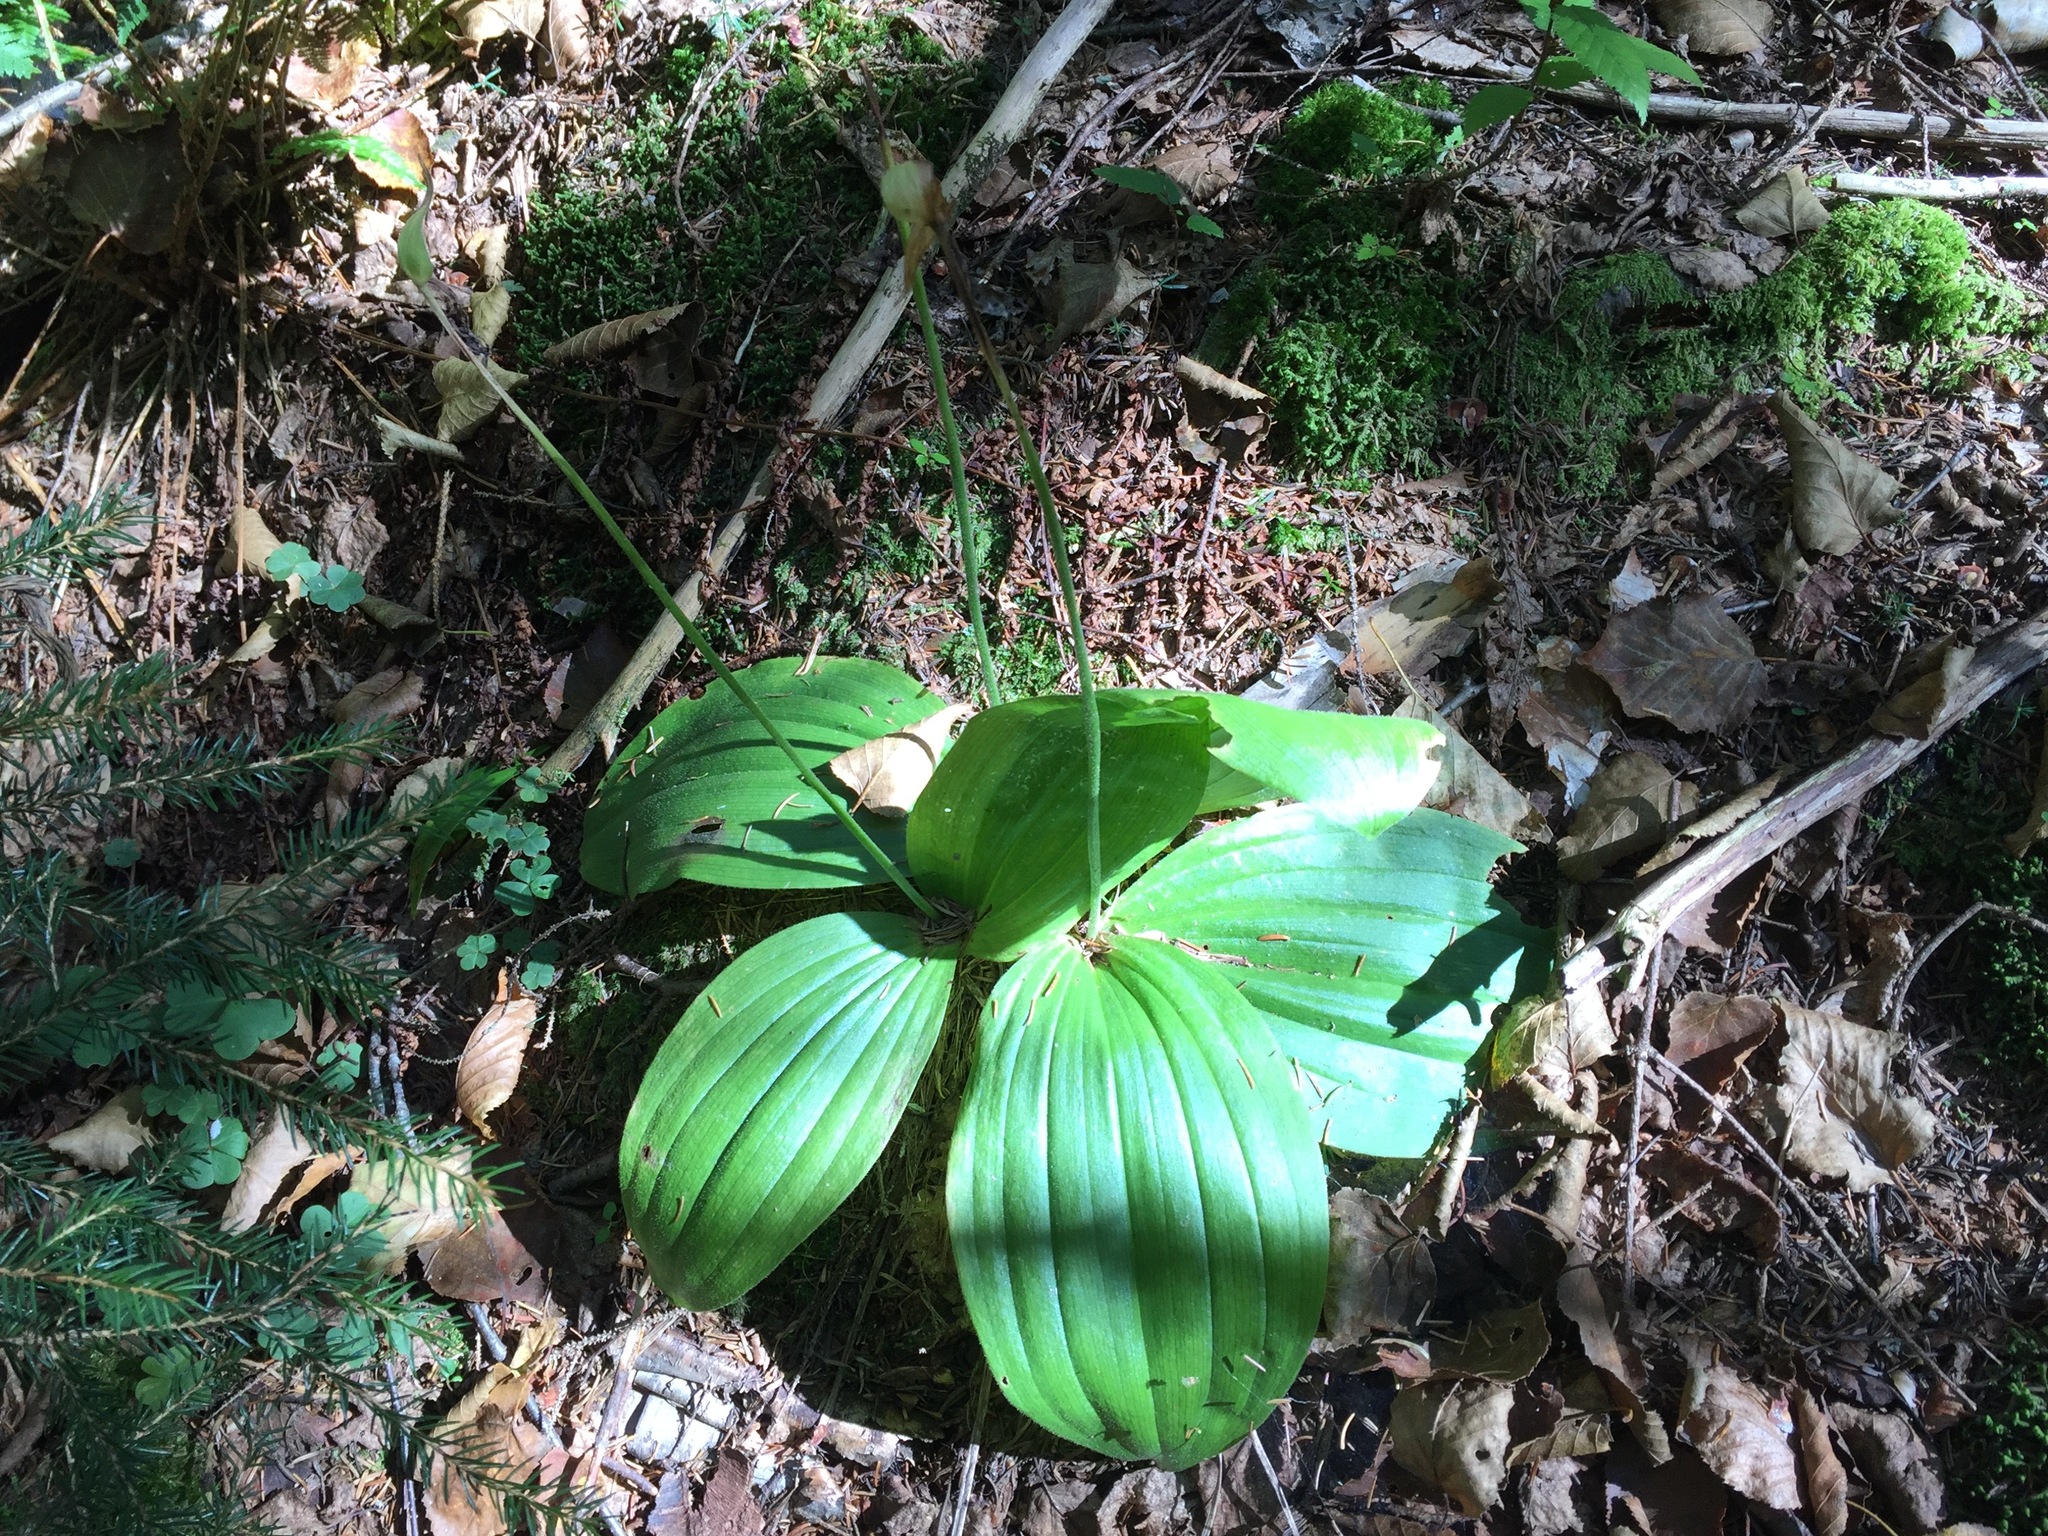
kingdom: Plantae
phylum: Tracheophyta
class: Liliopsida
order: Asparagales
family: Orchidaceae
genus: Cypripedium
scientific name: Cypripedium acaule
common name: Pink lady's-slipper
